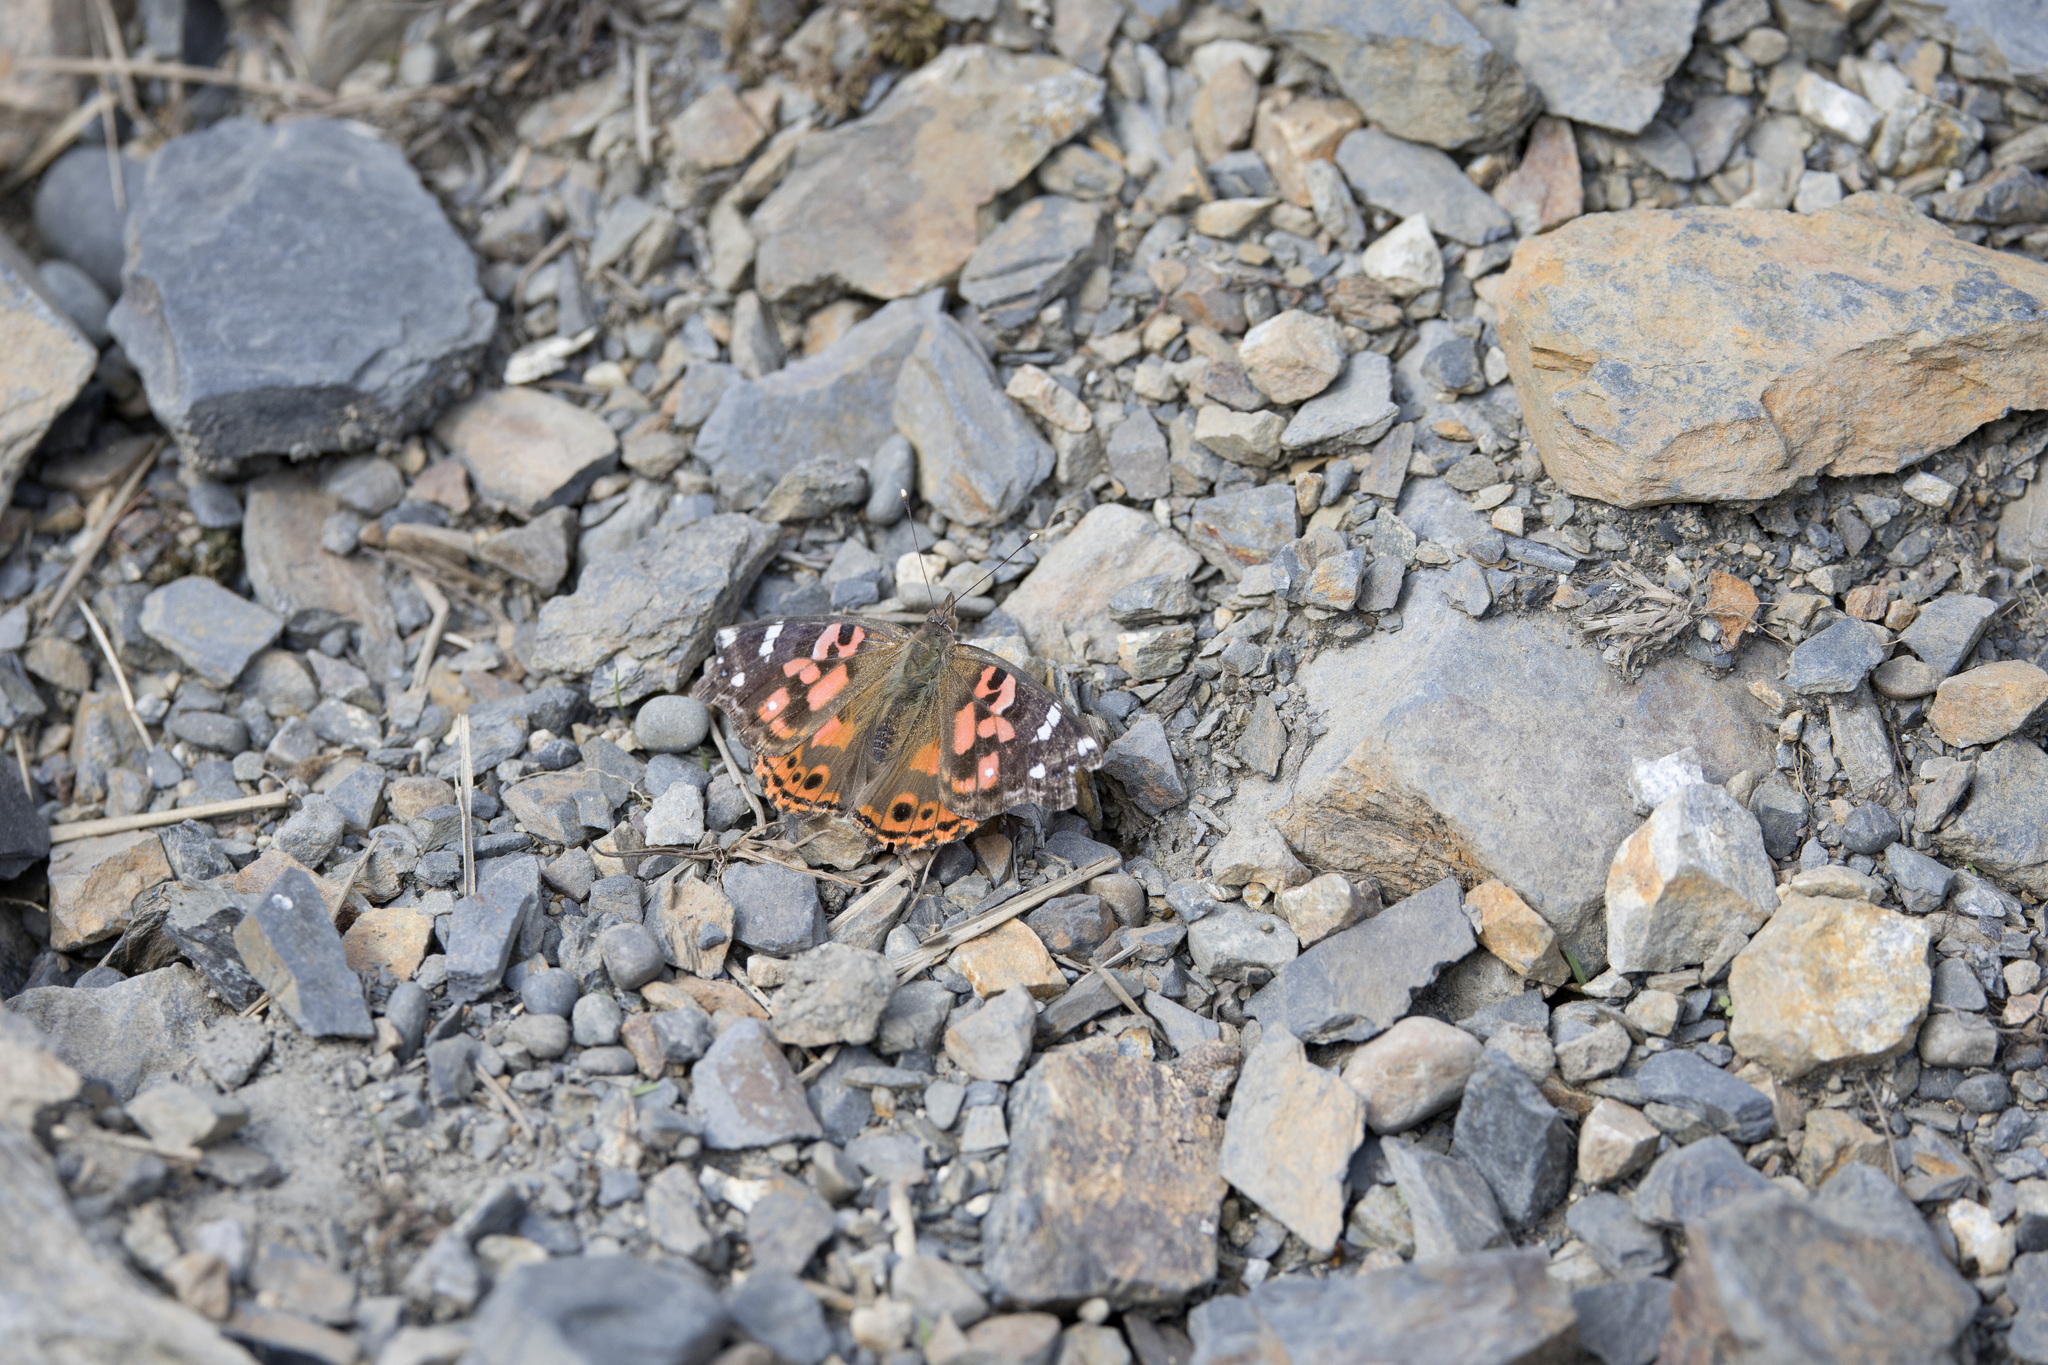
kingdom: Animalia
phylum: Arthropoda
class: Insecta
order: Lepidoptera
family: Nymphalidae
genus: Vanessa
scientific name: Vanessa braziliensis
